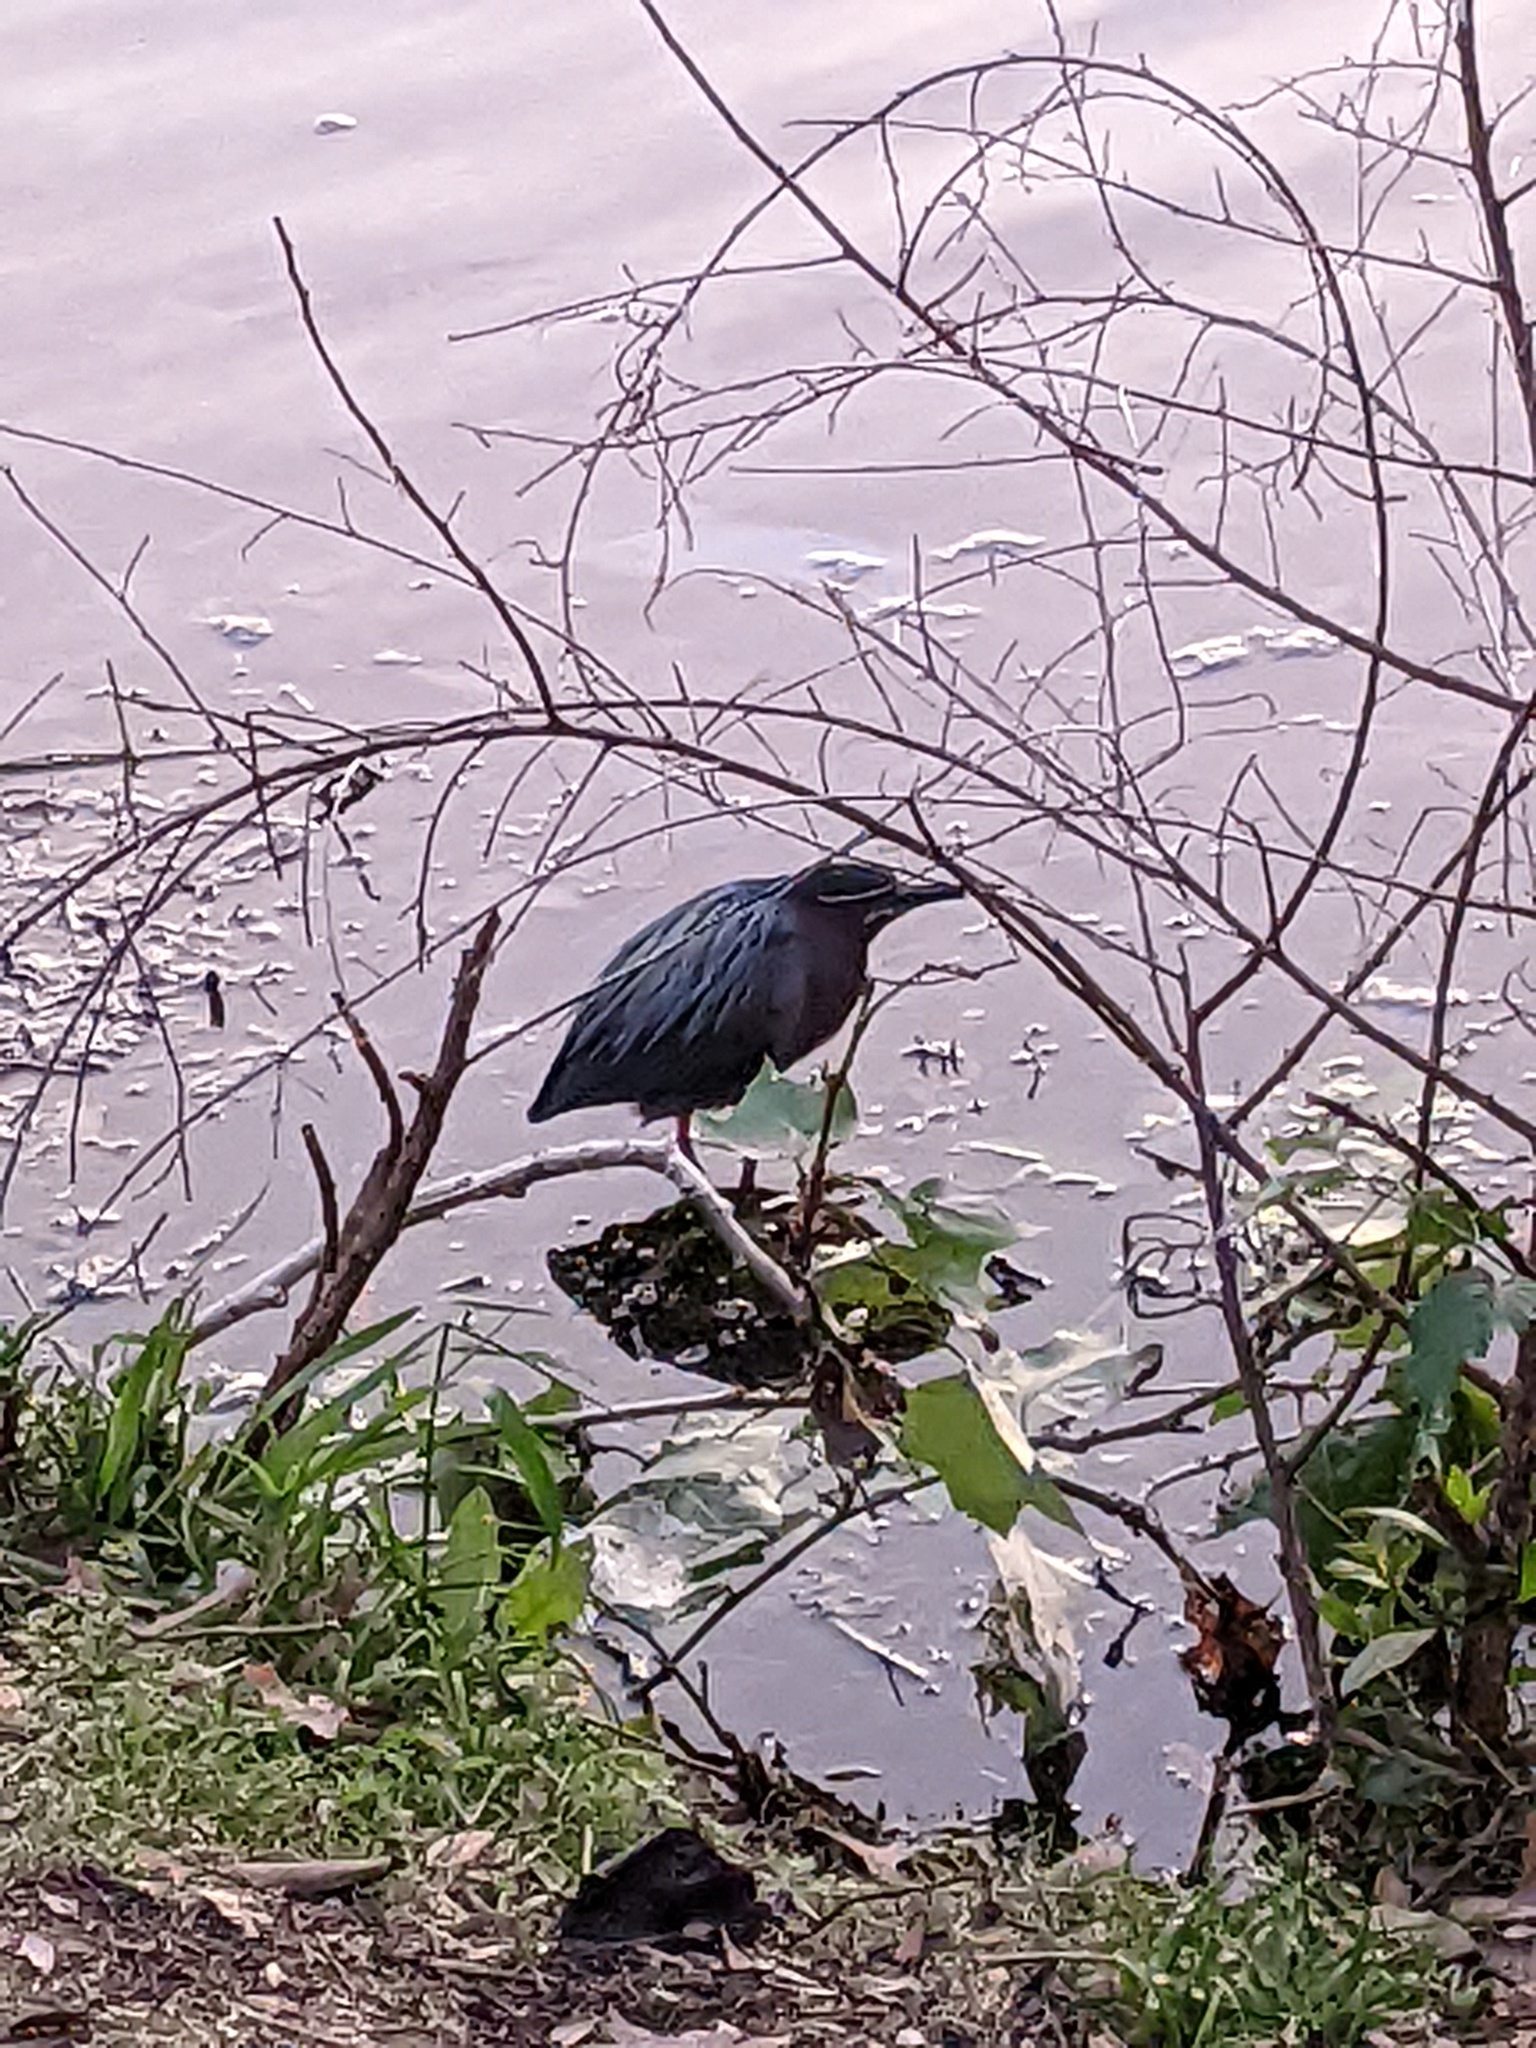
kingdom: Animalia
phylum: Chordata
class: Aves
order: Pelecaniformes
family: Ardeidae
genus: Butorides
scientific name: Butorides virescens
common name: Green heron
